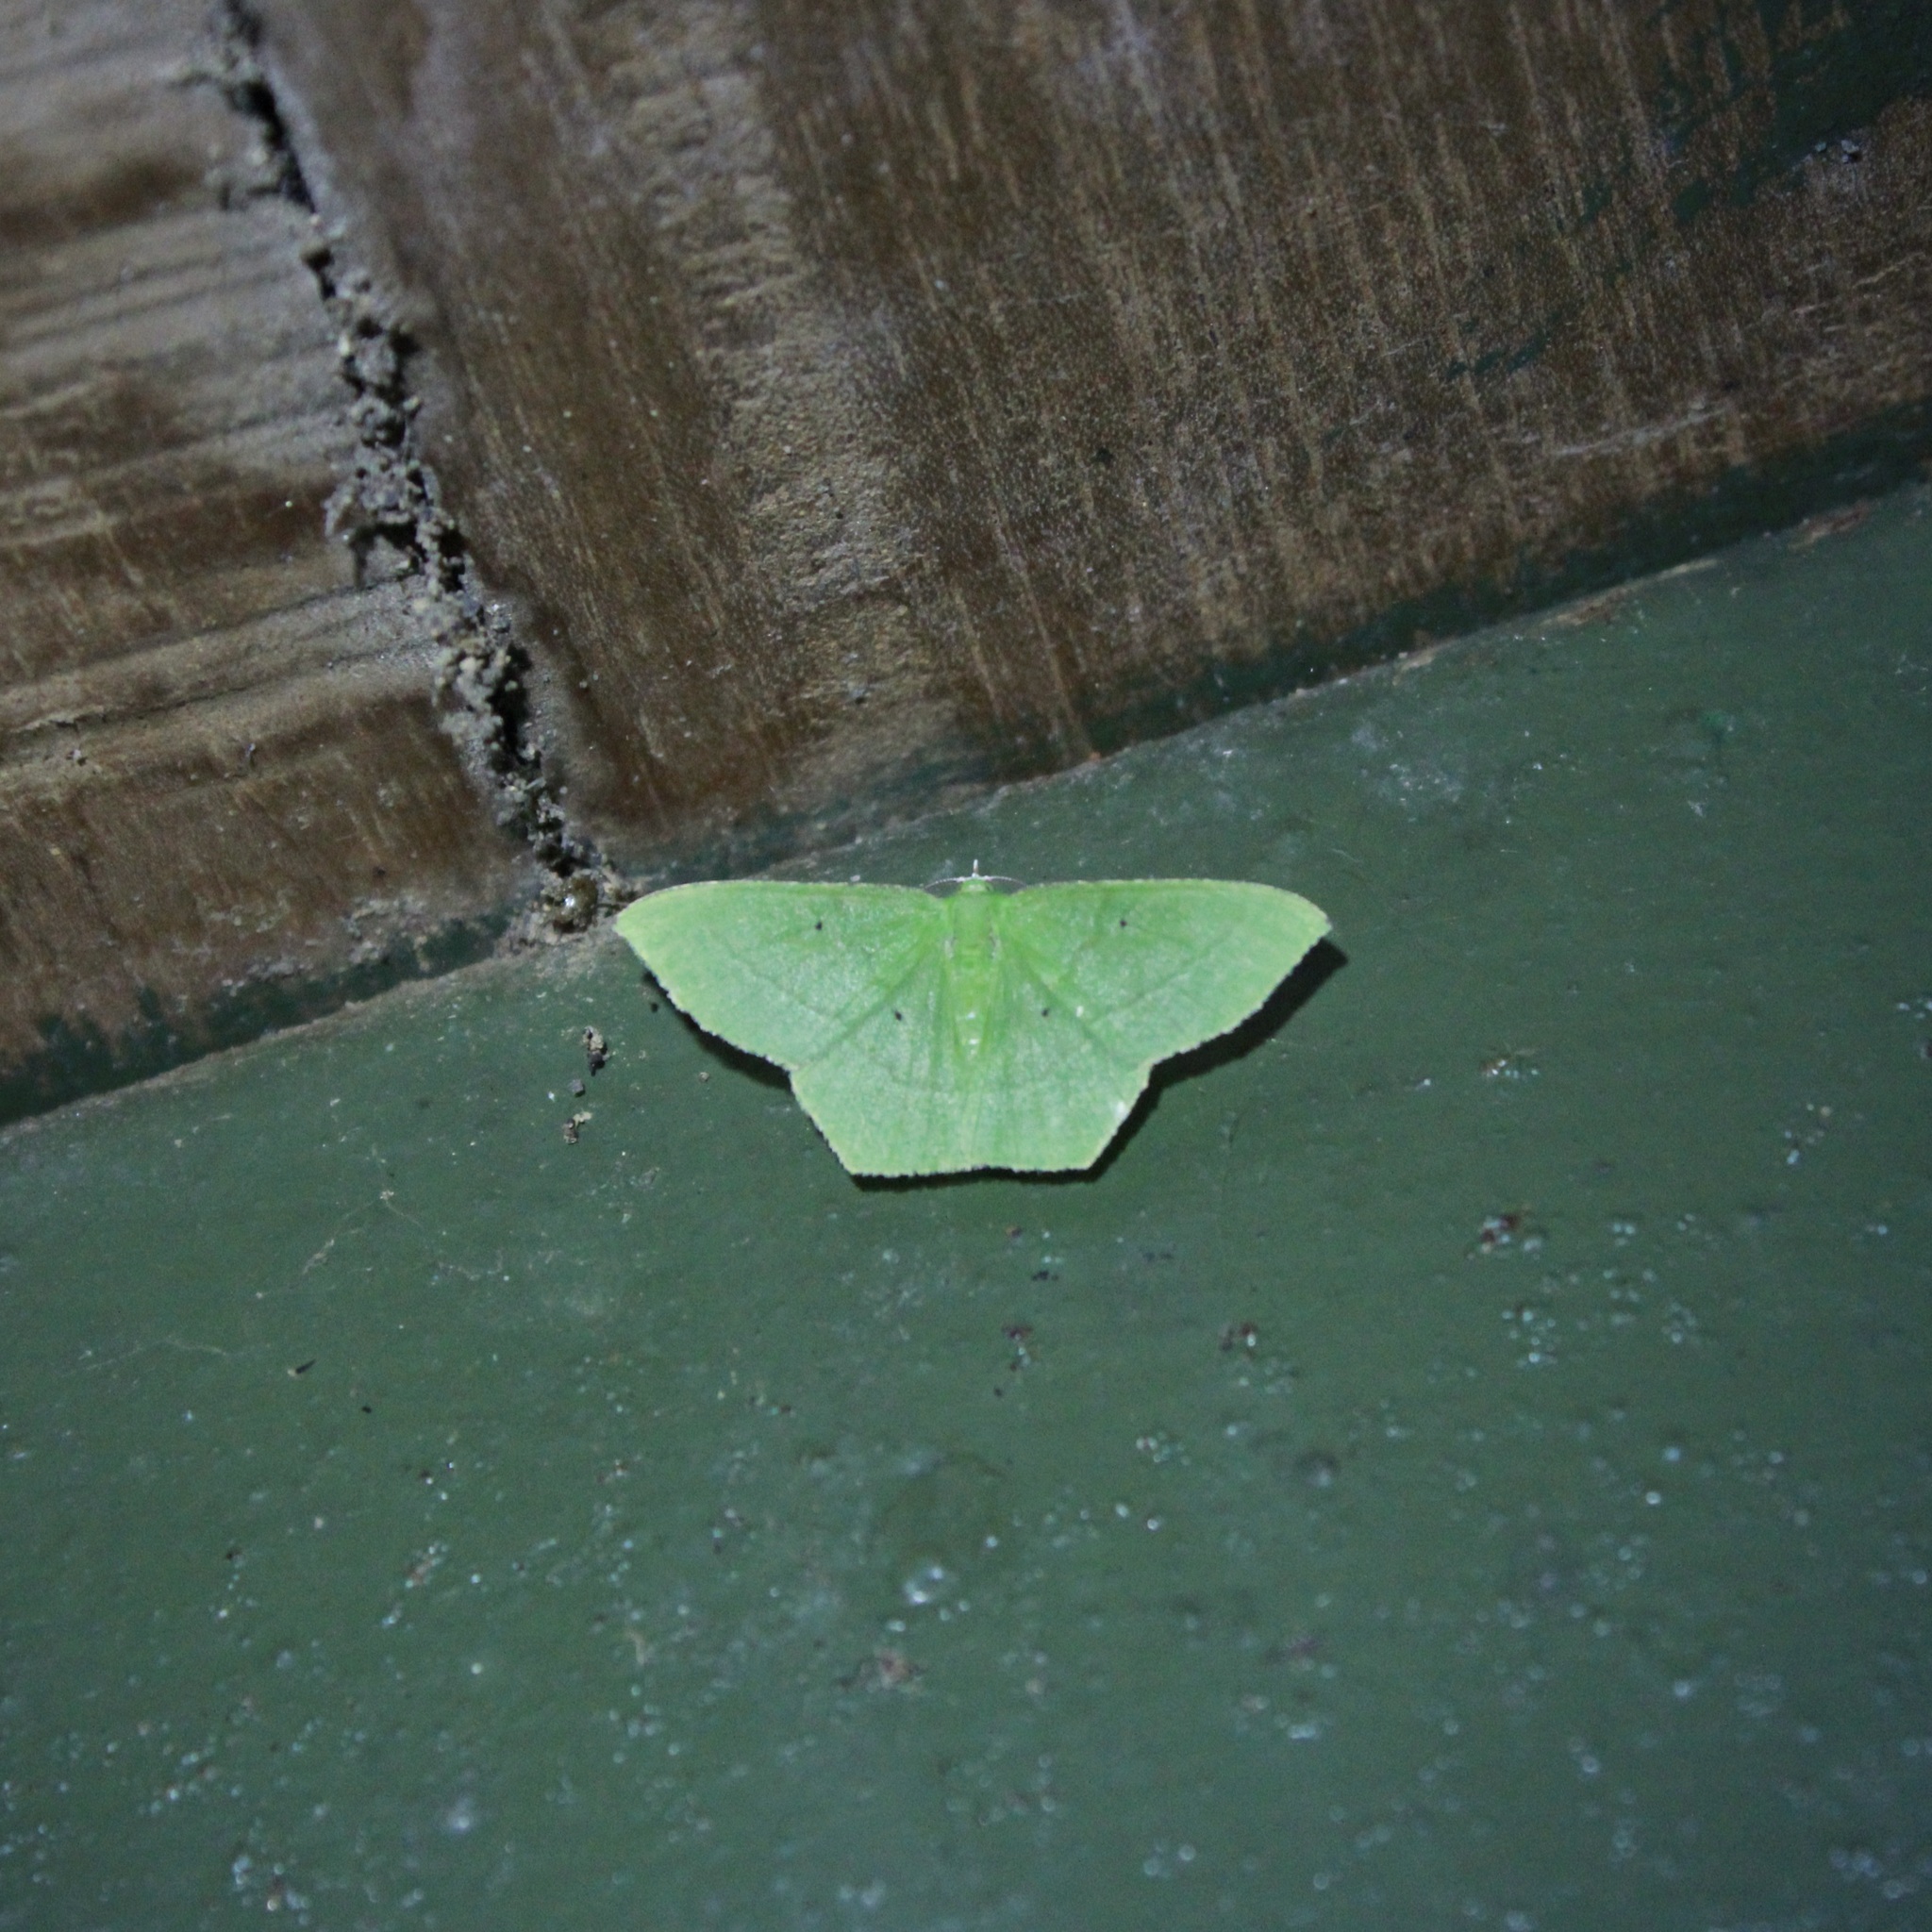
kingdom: Animalia
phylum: Arthropoda
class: Insecta
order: Lepidoptera
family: Geometridae
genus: Phrudocentra
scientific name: Phrudocentra pupillata
